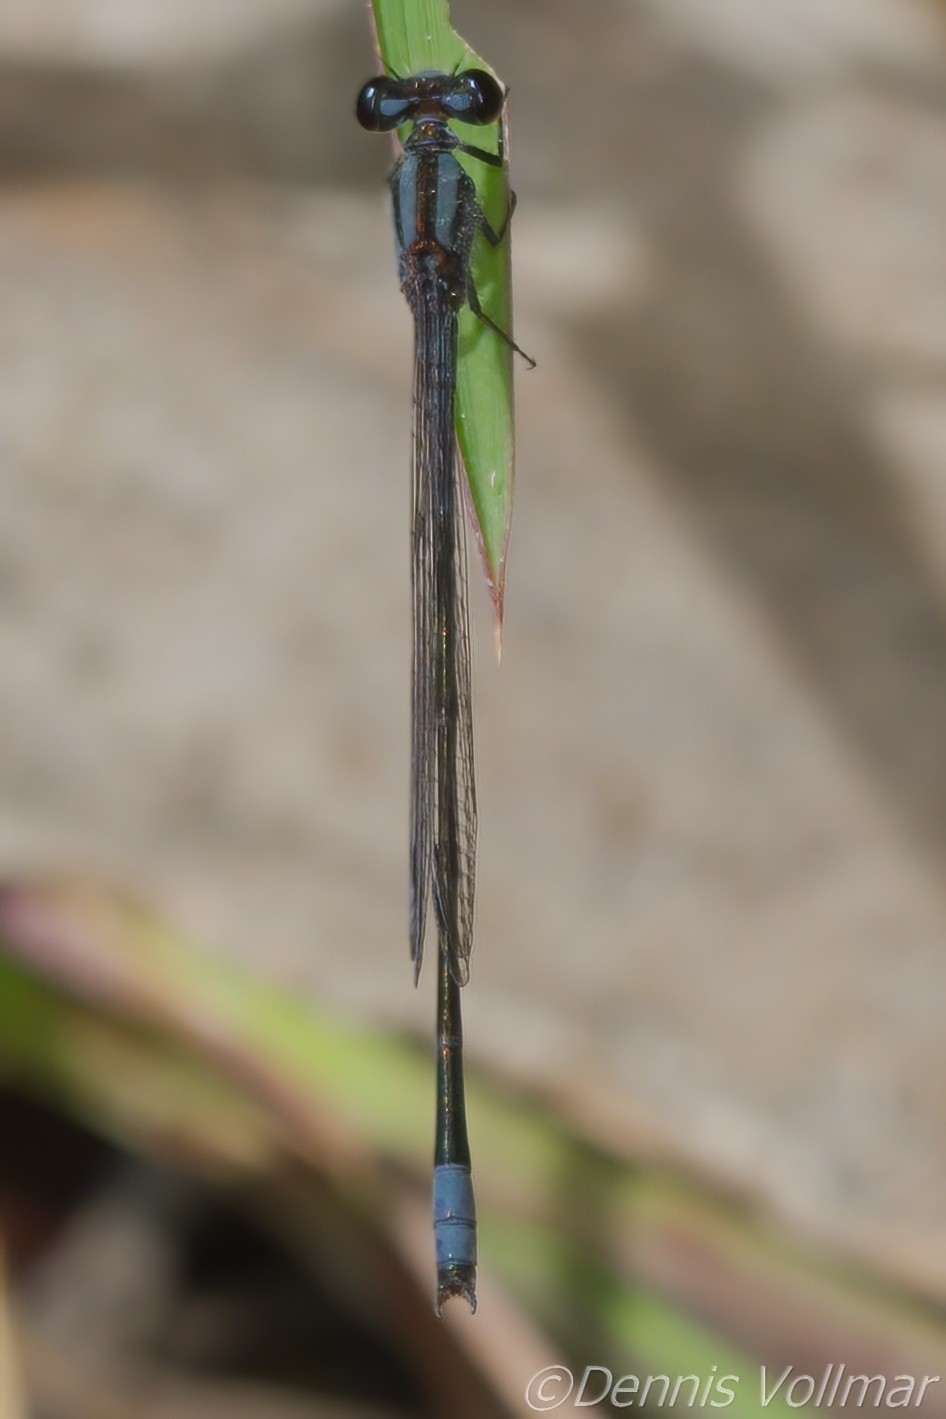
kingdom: Animalia
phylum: Arthropoda
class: Insecta
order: Odonata
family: Coenagrionidae
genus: Enallagma
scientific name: Enallagma cardenium
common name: Purple bluet
